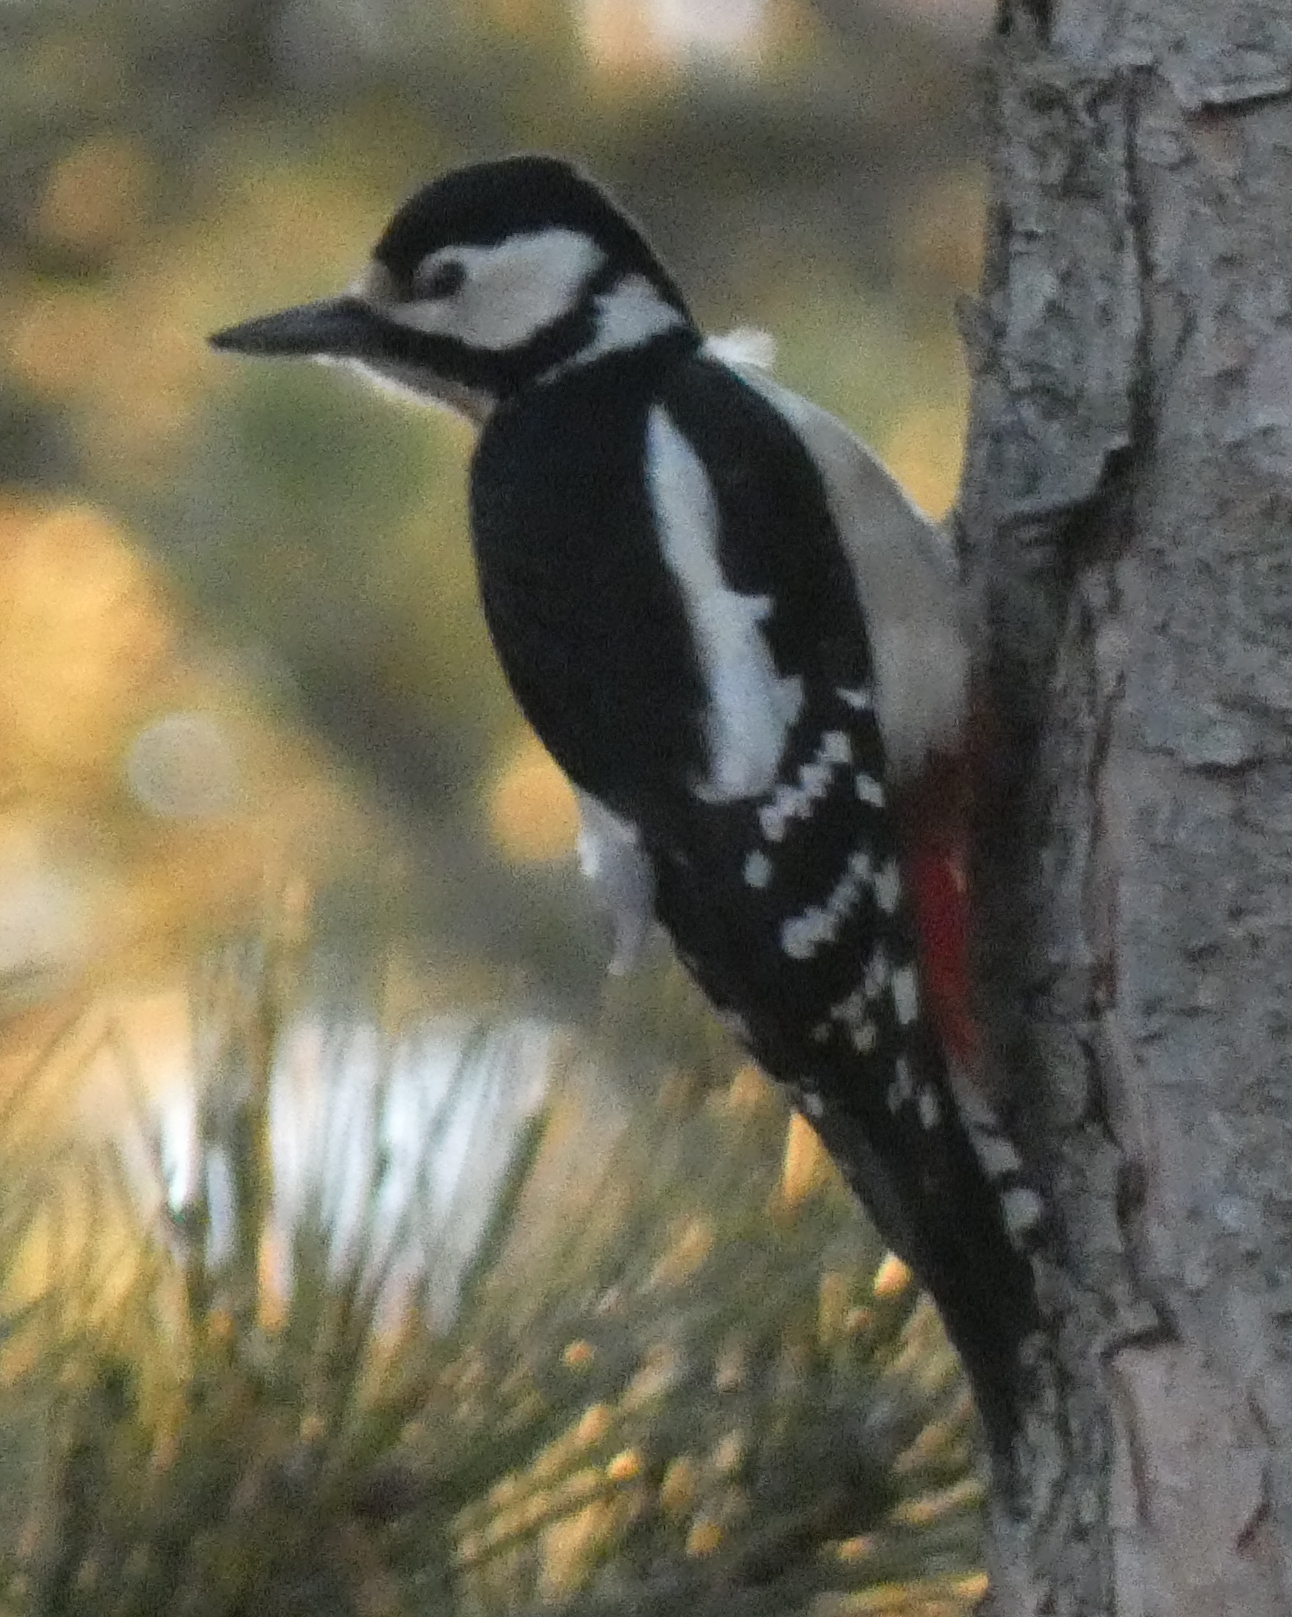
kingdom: Animalia
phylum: Chordata
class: Aves
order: Piciformes
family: Picidae
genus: Dendrocopos
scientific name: Dendrocopos major
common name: Great spotted woodpecker
